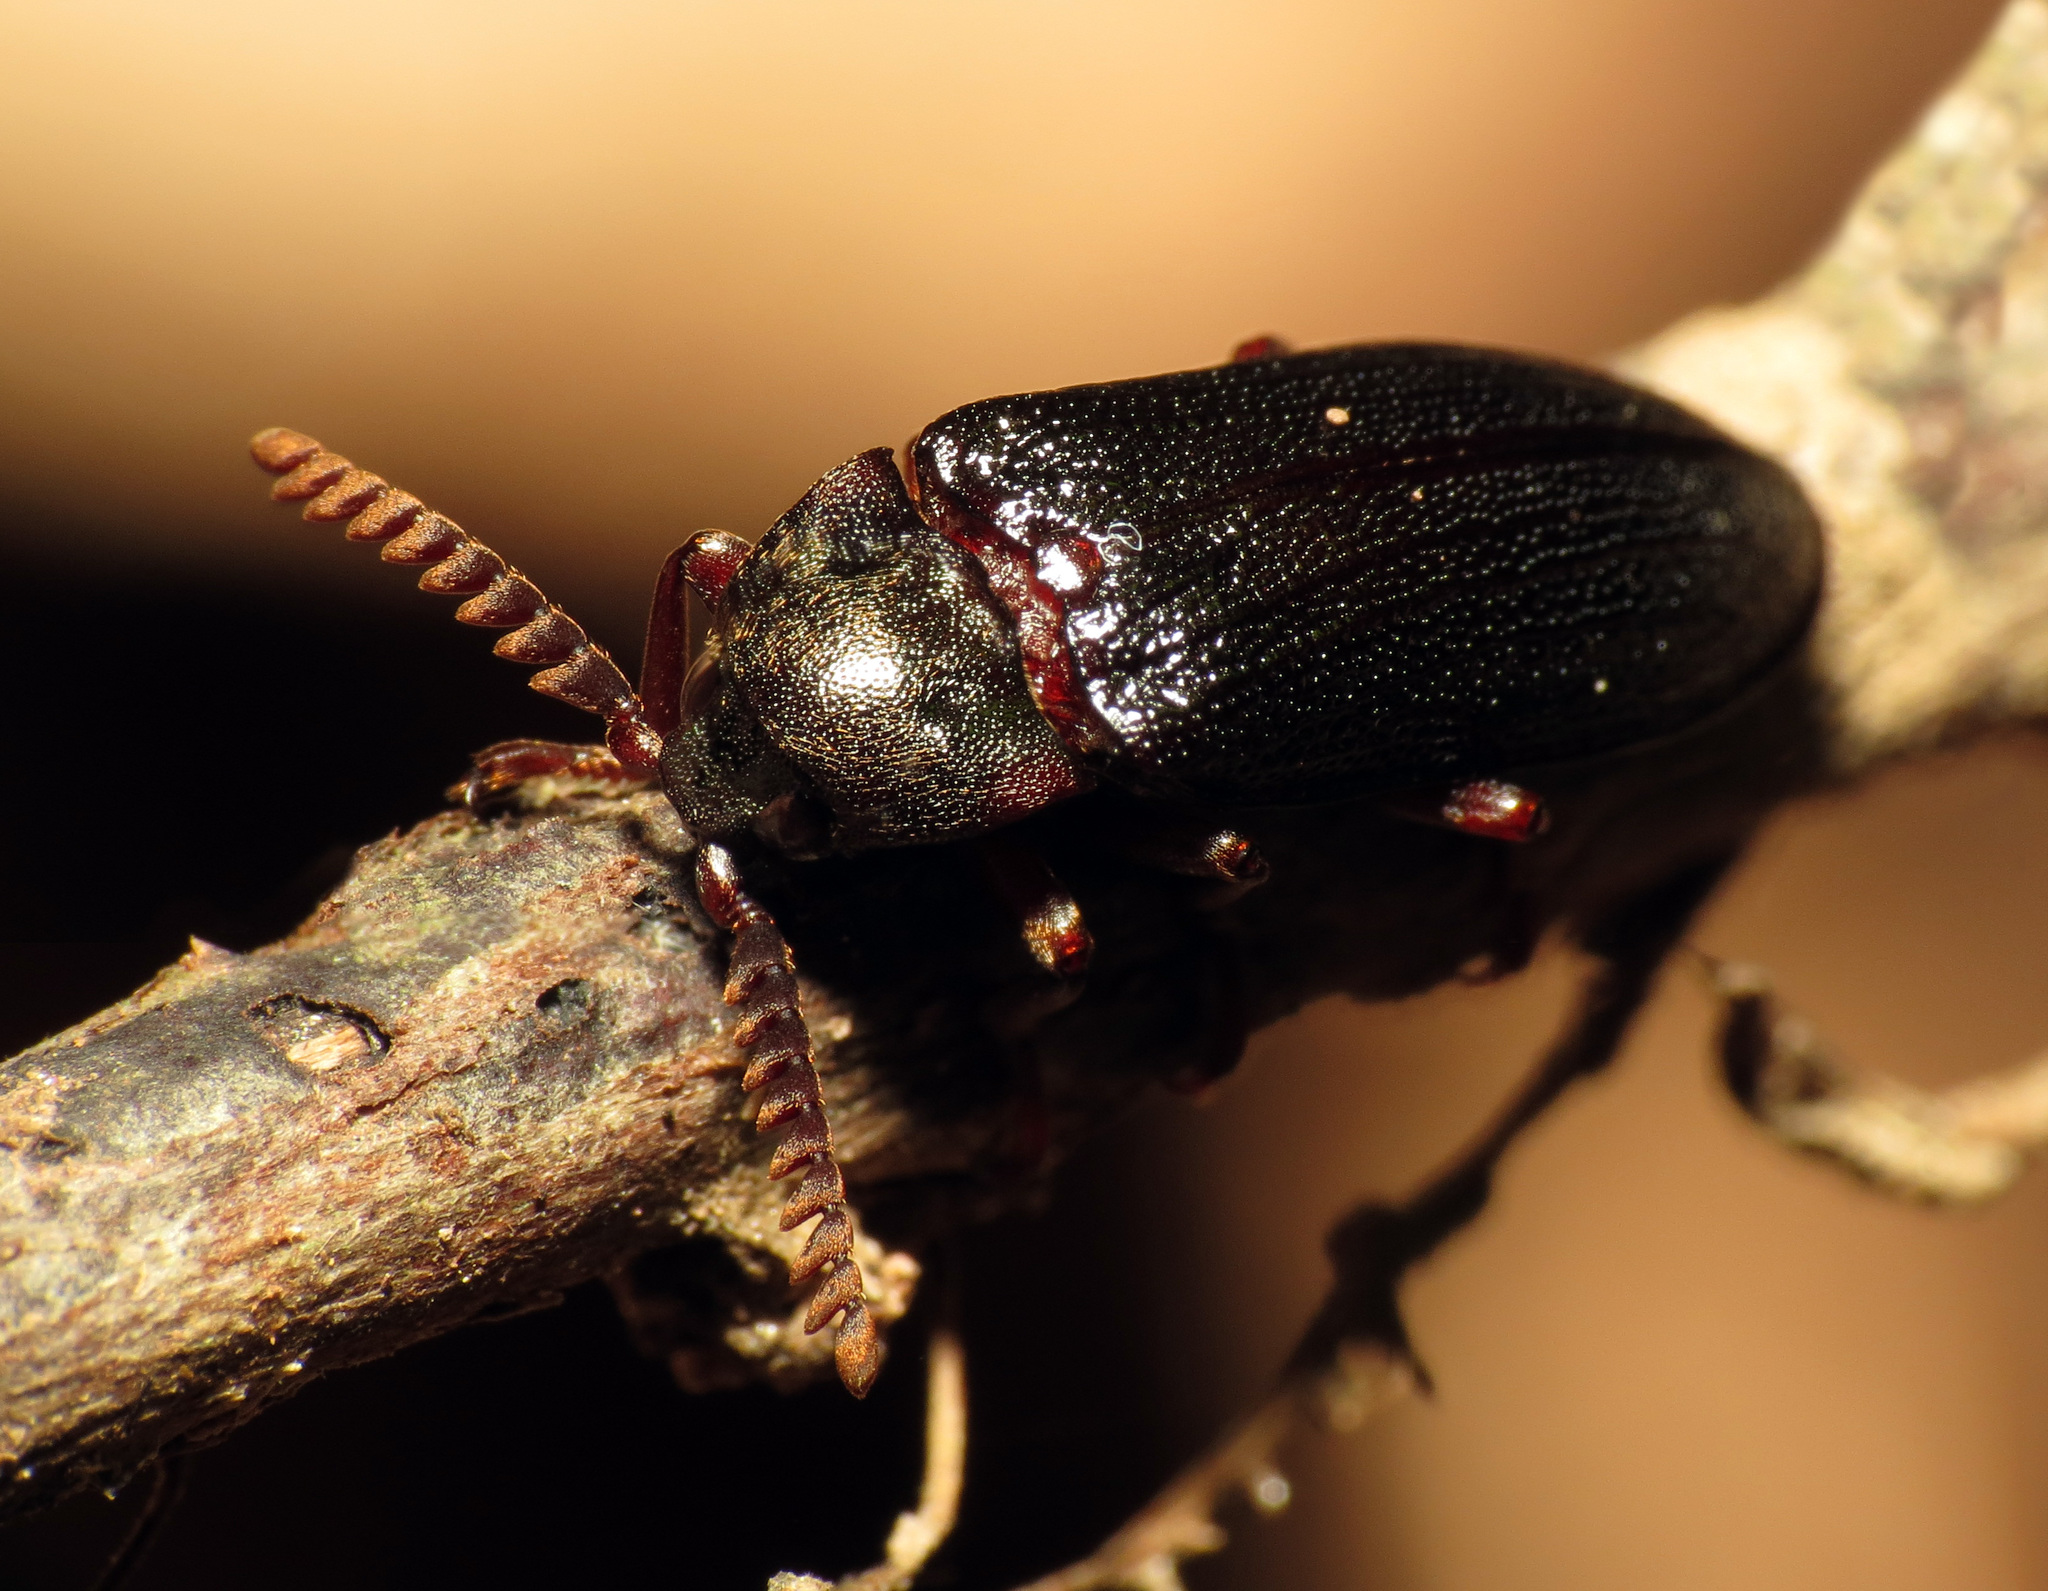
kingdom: Animalia
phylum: Arthropoda
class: Insecta
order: Coleoptera
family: Callirhipidae
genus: Zenoa
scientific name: Zenoa picea
